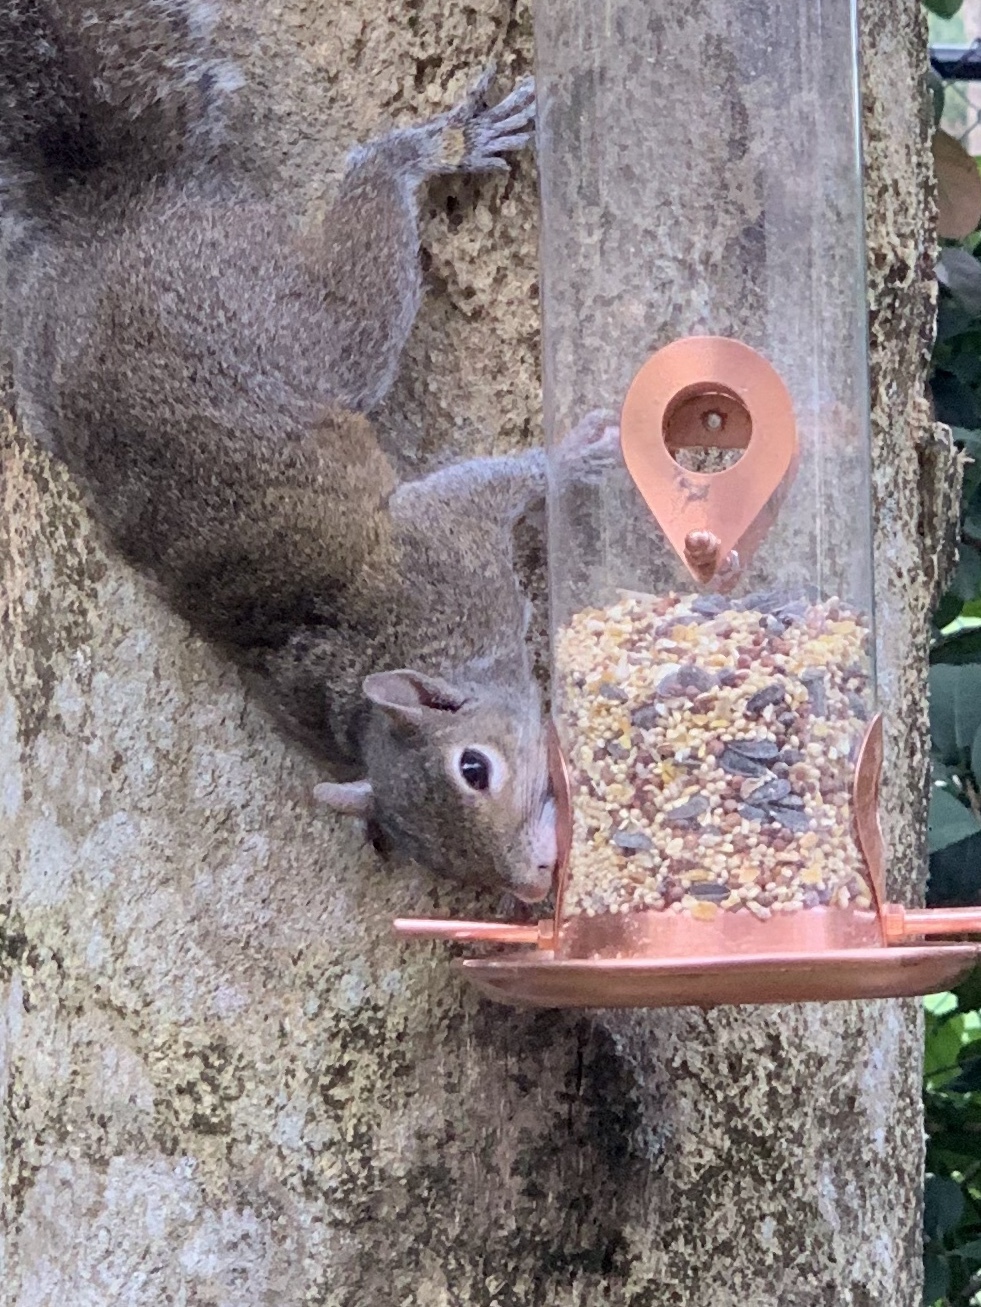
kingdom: Animalia
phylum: Chordata
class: Mammalia
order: Rodentia
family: Sciuridae
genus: Sciurus
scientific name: Sciurus carolinensis
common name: Eastern gray squirrel
